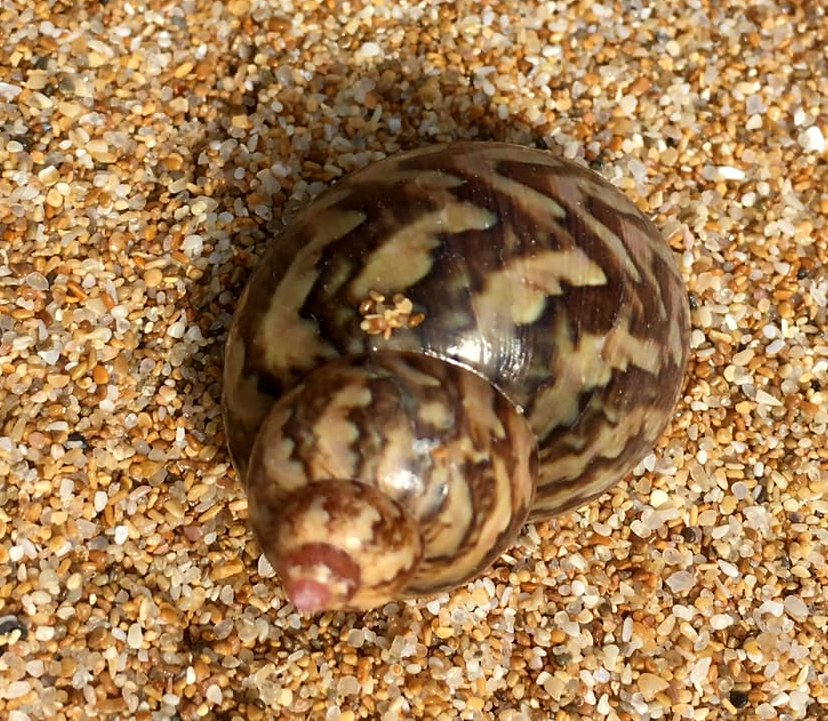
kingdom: Animalia
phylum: Mollusca
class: Gastropoda
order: Trochida
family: Phasianellidae
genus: Phasianella
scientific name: Phasianella ventricosa
